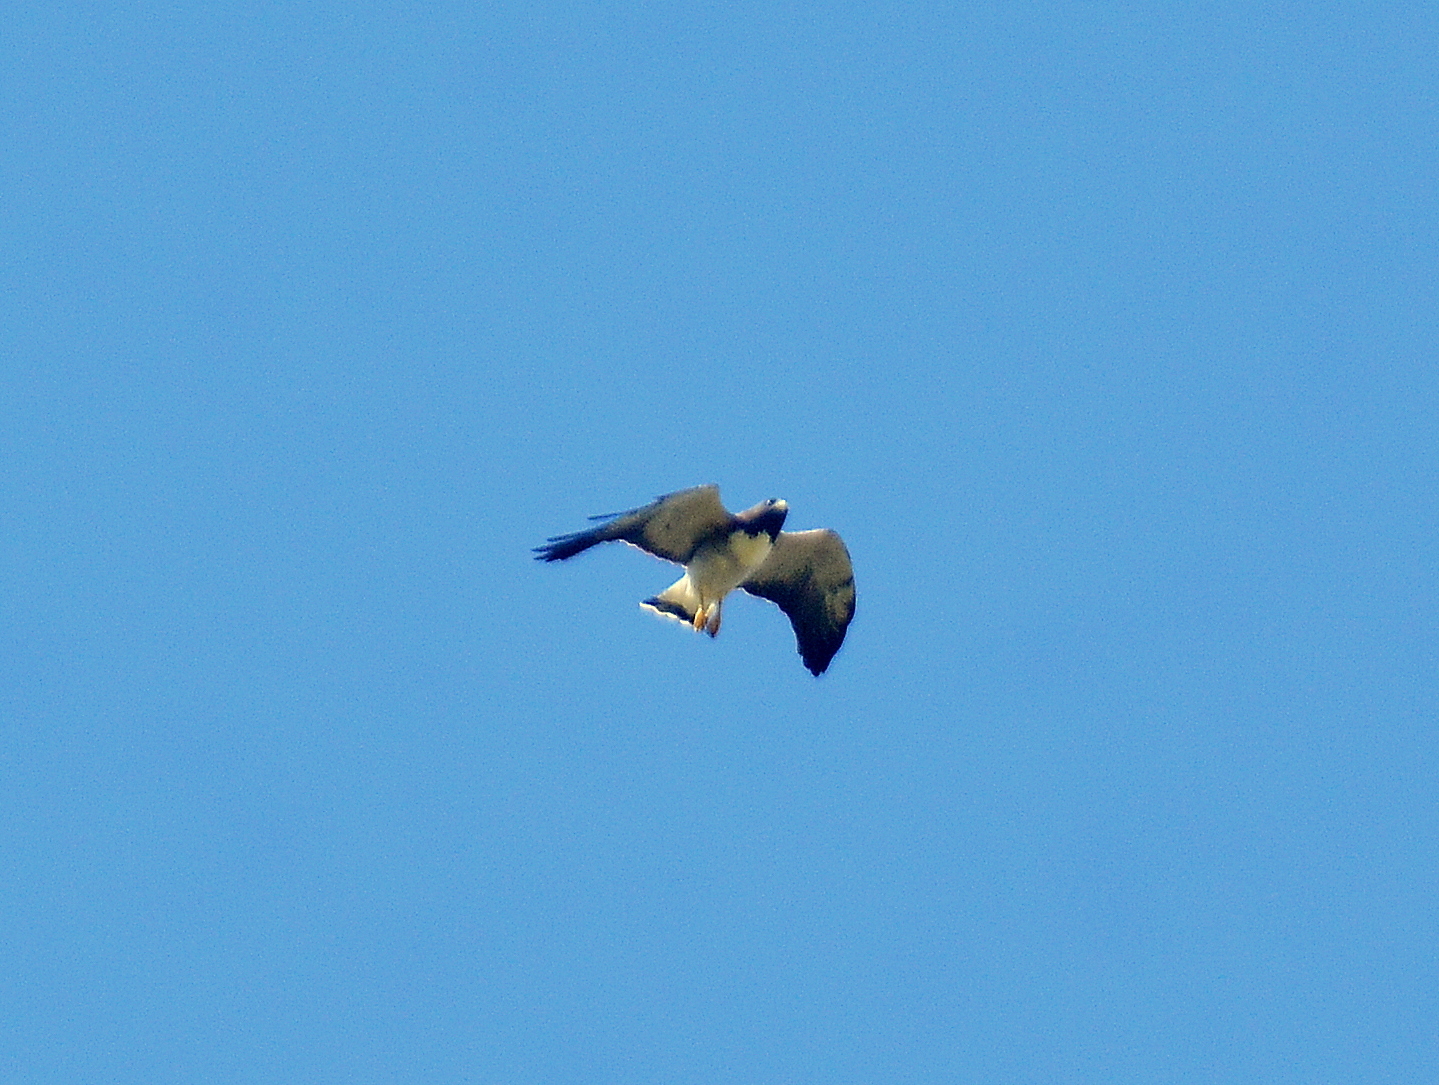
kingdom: Animalia
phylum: Chordata
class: Aves
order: Accipitriformes
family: Accipitridae
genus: Buteo
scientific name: Buteo albicaudatus
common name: White-tailed hawk
